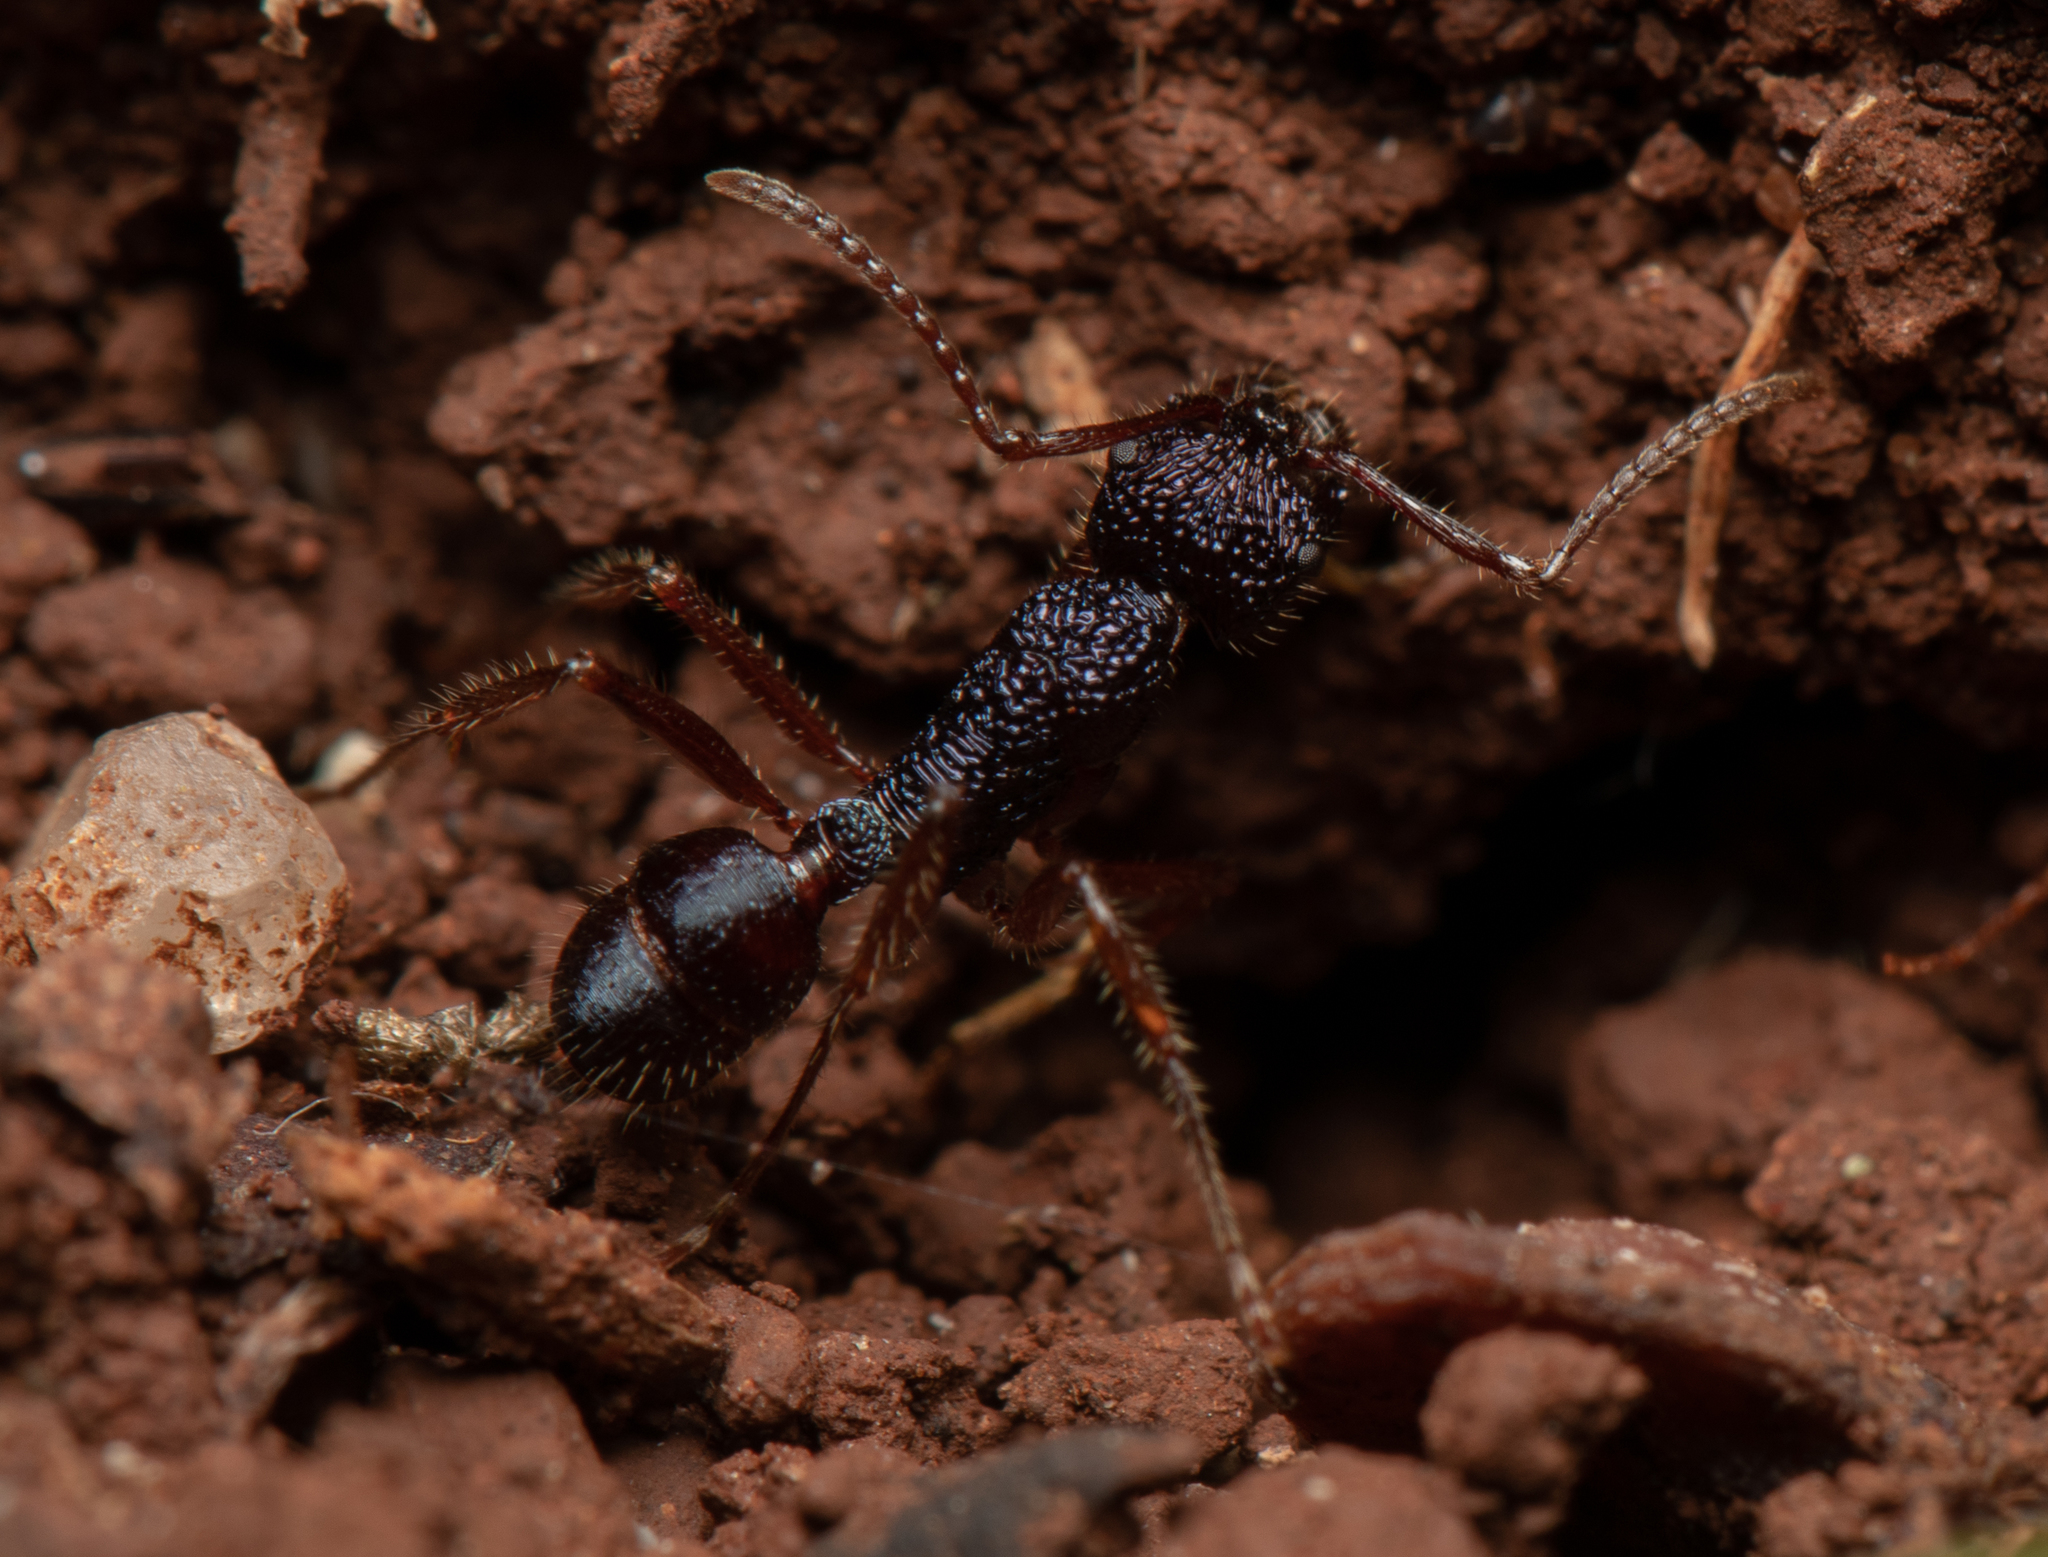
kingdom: Animalia
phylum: Arthropoda
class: Insecta
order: Hymenoptera
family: Formicidae
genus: Rhytidoponera
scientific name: Rhytidoponera confusa
